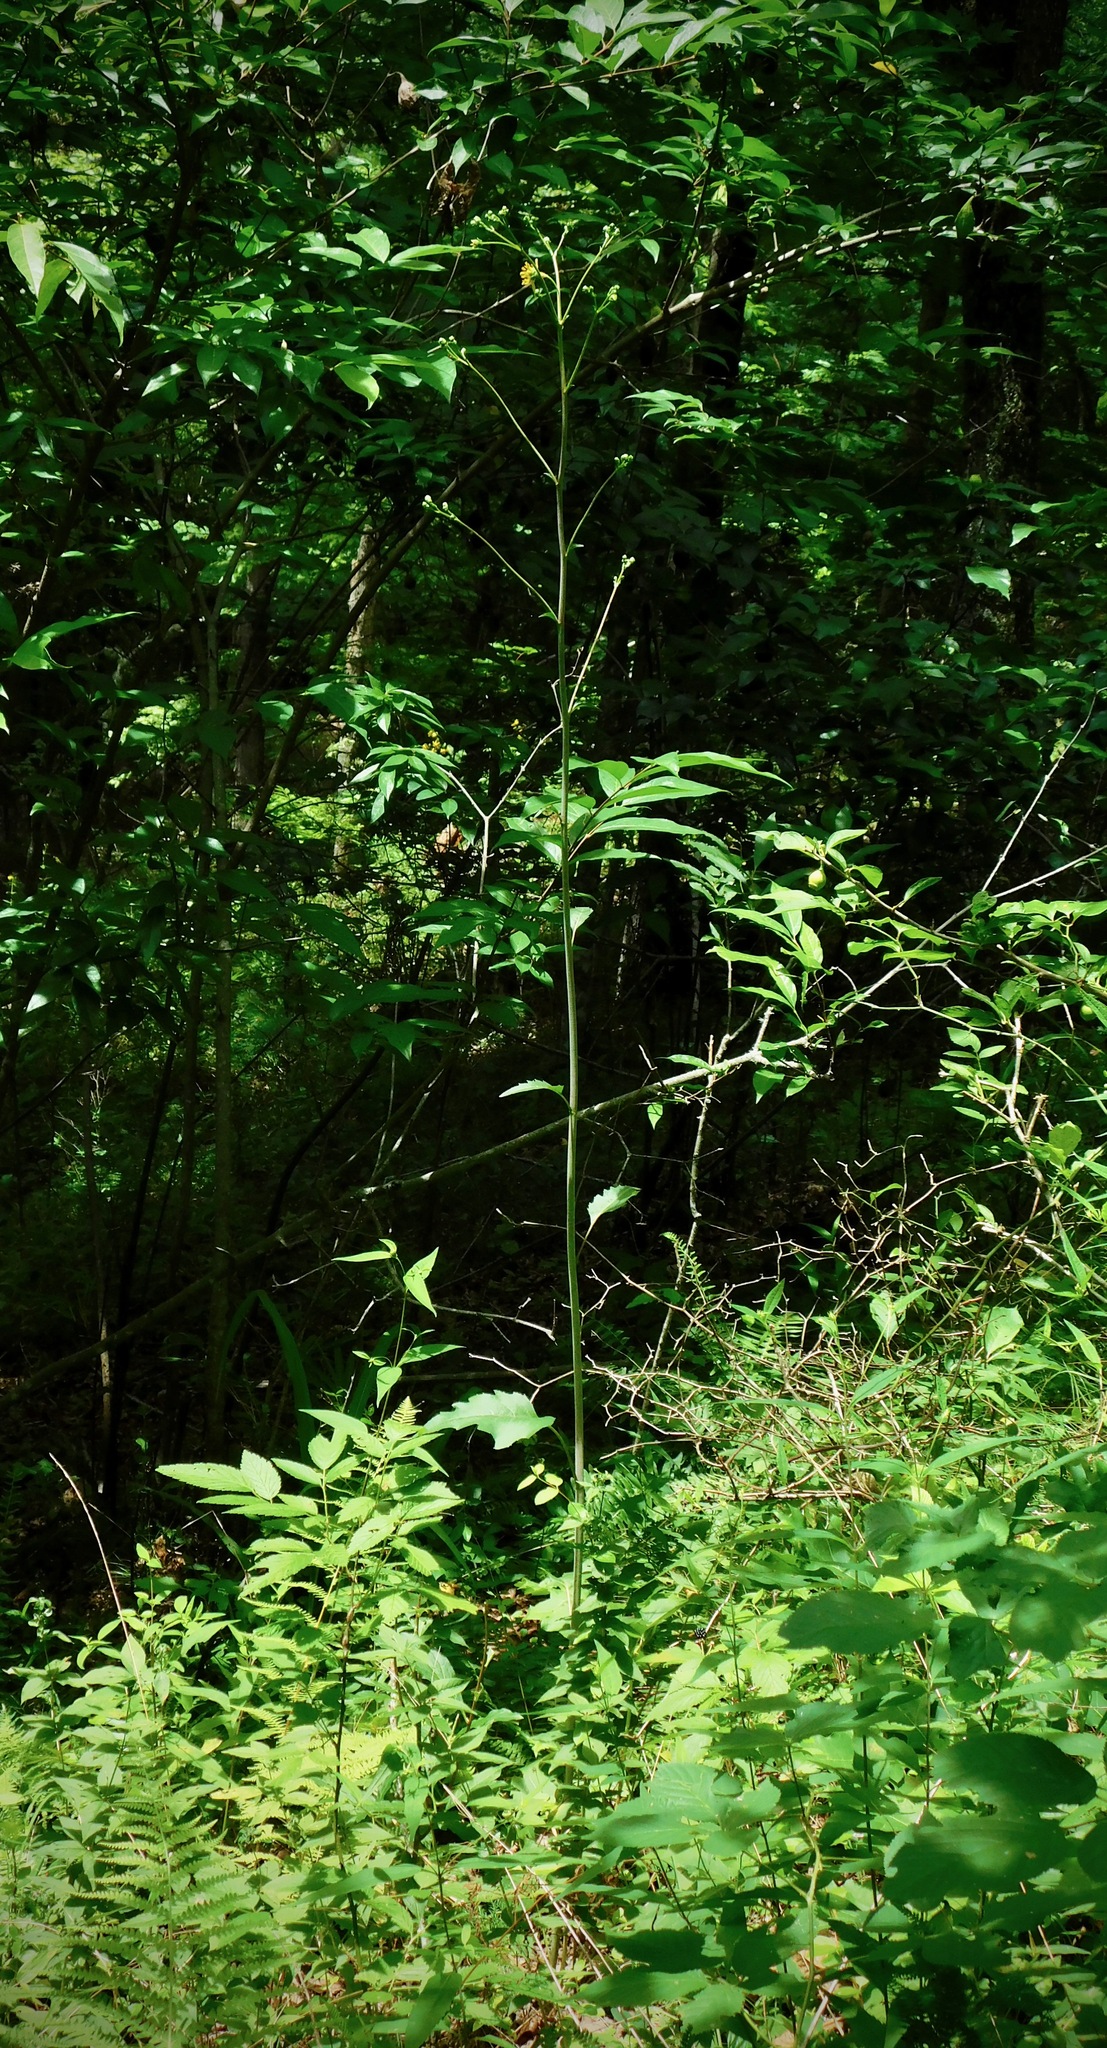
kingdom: Plantae
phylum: Tracheophyta
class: Magnoliopsida
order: Asterales
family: Asteraceae
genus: Silphium
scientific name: Silphium compositum
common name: Lesser basal-leaf rosinweed
